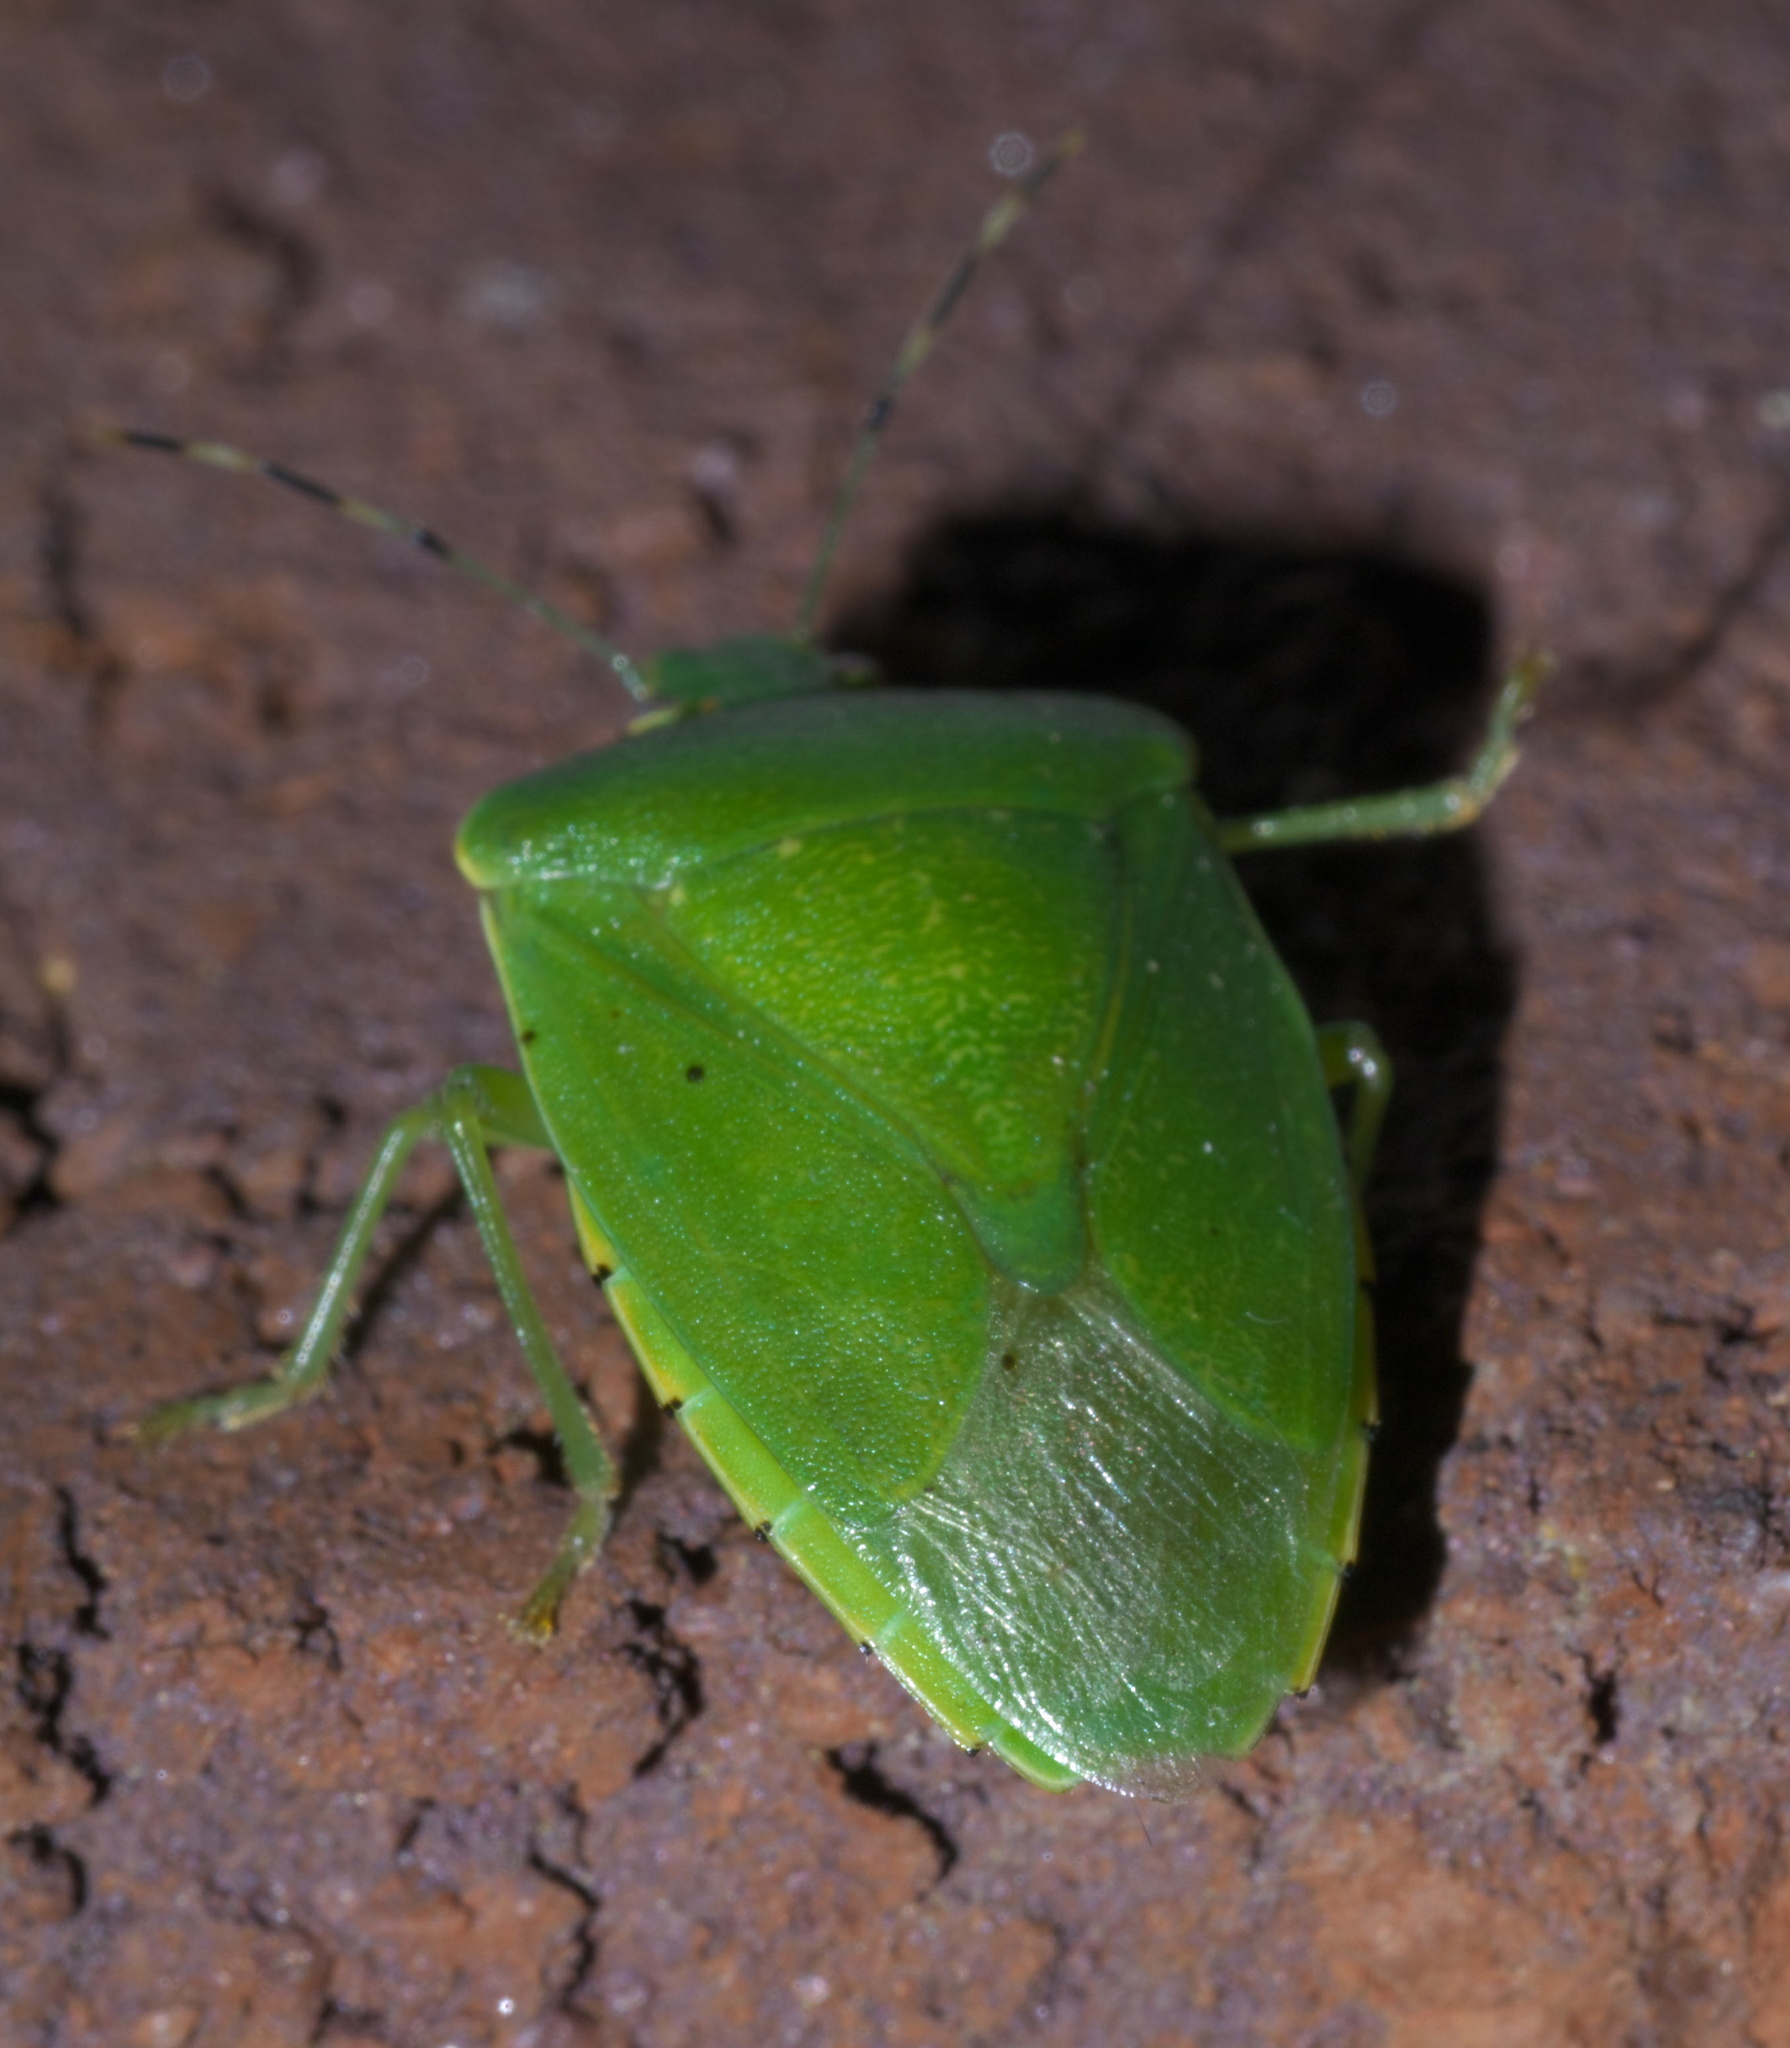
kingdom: Animalia
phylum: Arthropoda
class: Insecta
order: Hemiptera
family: Pentatomidae
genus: Chinavia
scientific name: Chinavia hilaris
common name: Green stink bug
